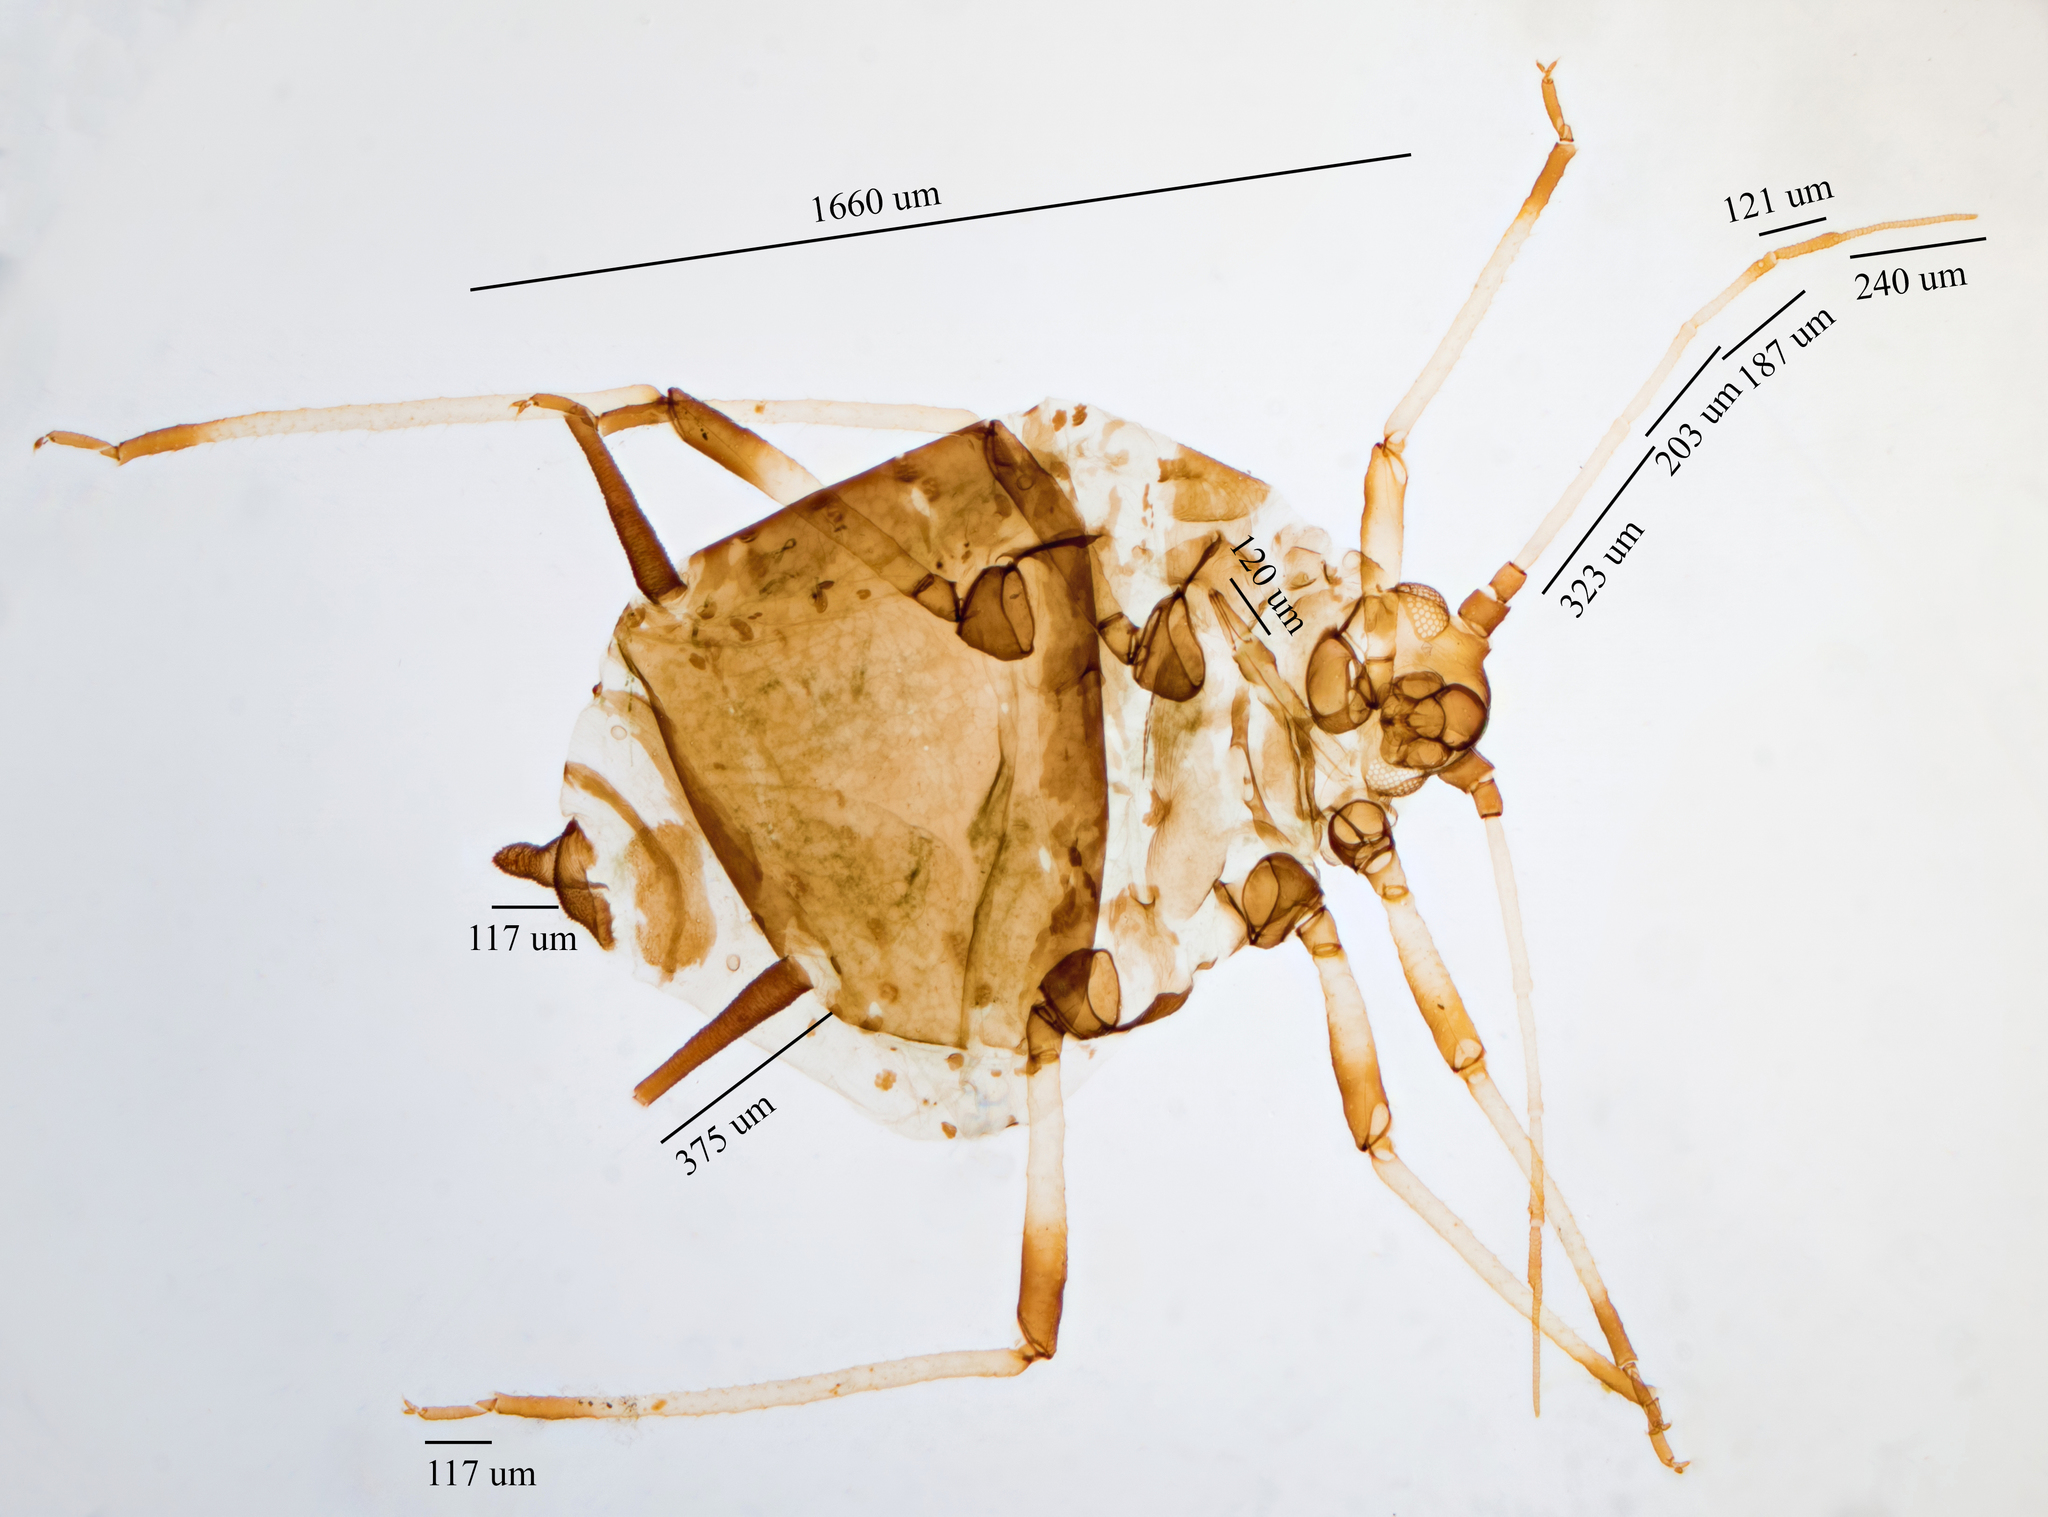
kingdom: Animalia
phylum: Arthropoda
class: Insecta
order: Hemiptera
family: Aphididae
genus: Aphis
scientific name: Aphis craccivora
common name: Cowpea aphid
